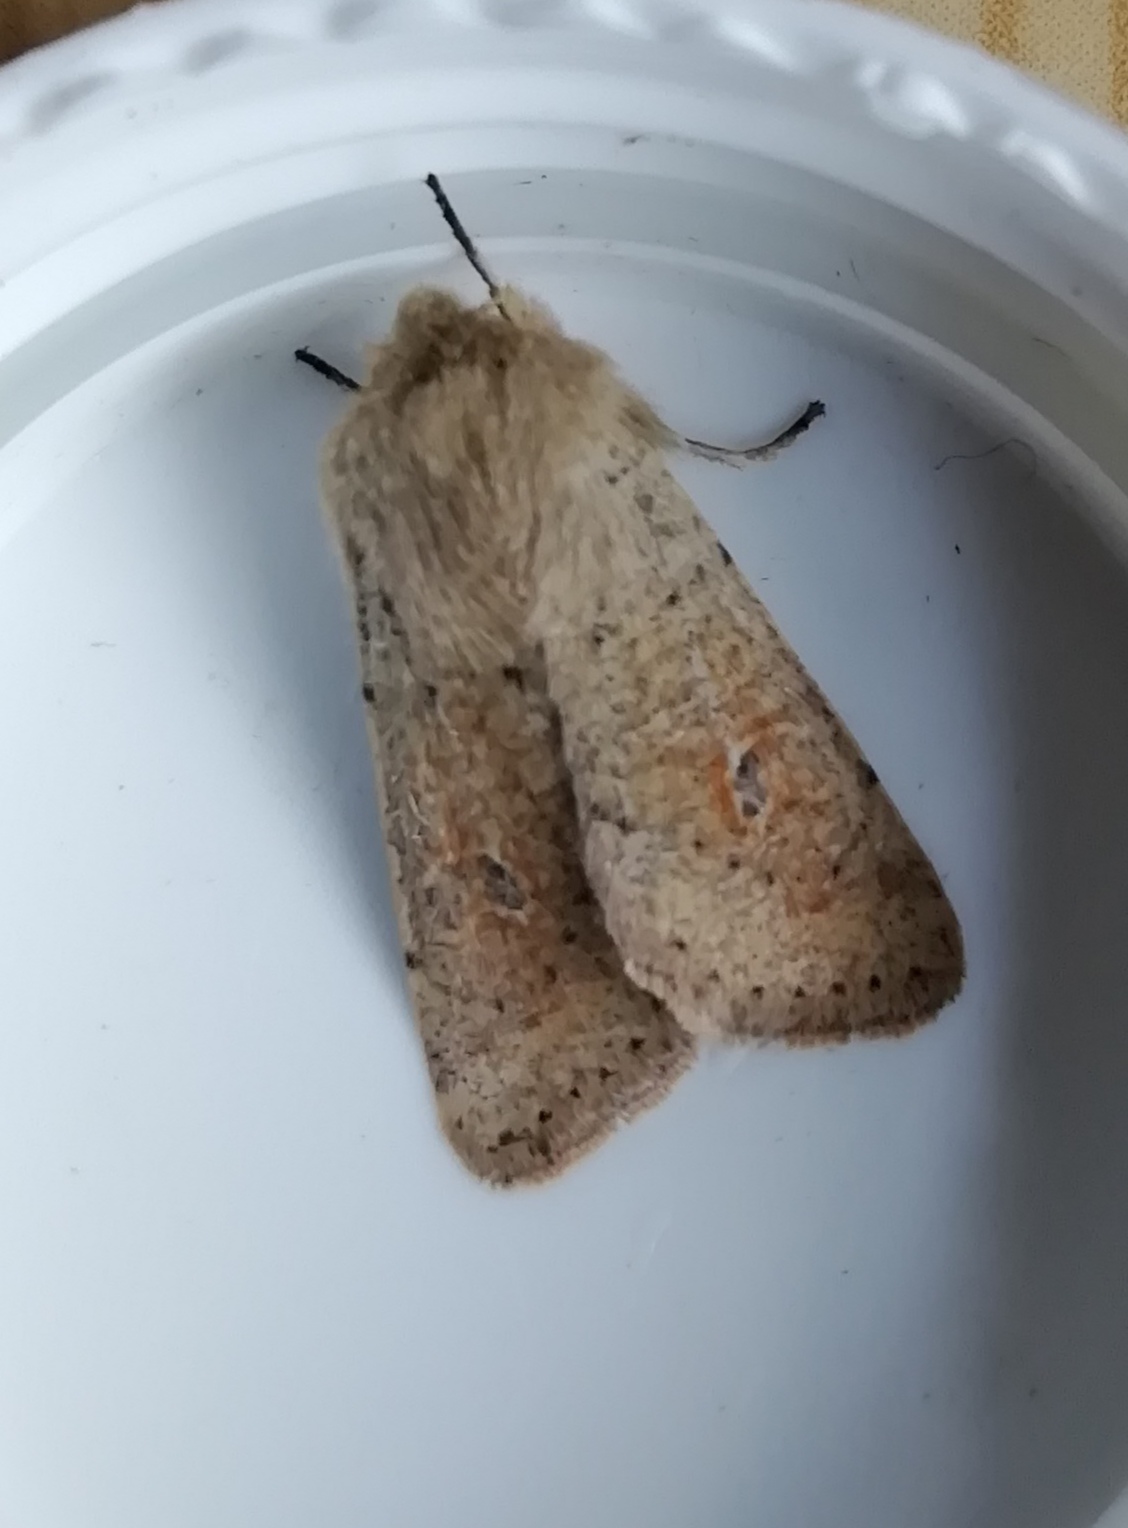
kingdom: Animalia
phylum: Arthropoda
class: Insecta
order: Lepidoptera
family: Noctuidae
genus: Orthosia
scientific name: Orthosia cruda
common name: Small quaker
